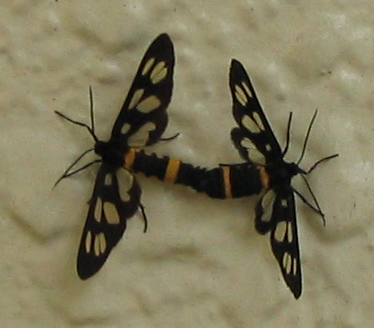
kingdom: Animalia
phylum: Arthropoda
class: Insecta
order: Lepidoptera
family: Erebidae
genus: Amata
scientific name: Amata fortunei
